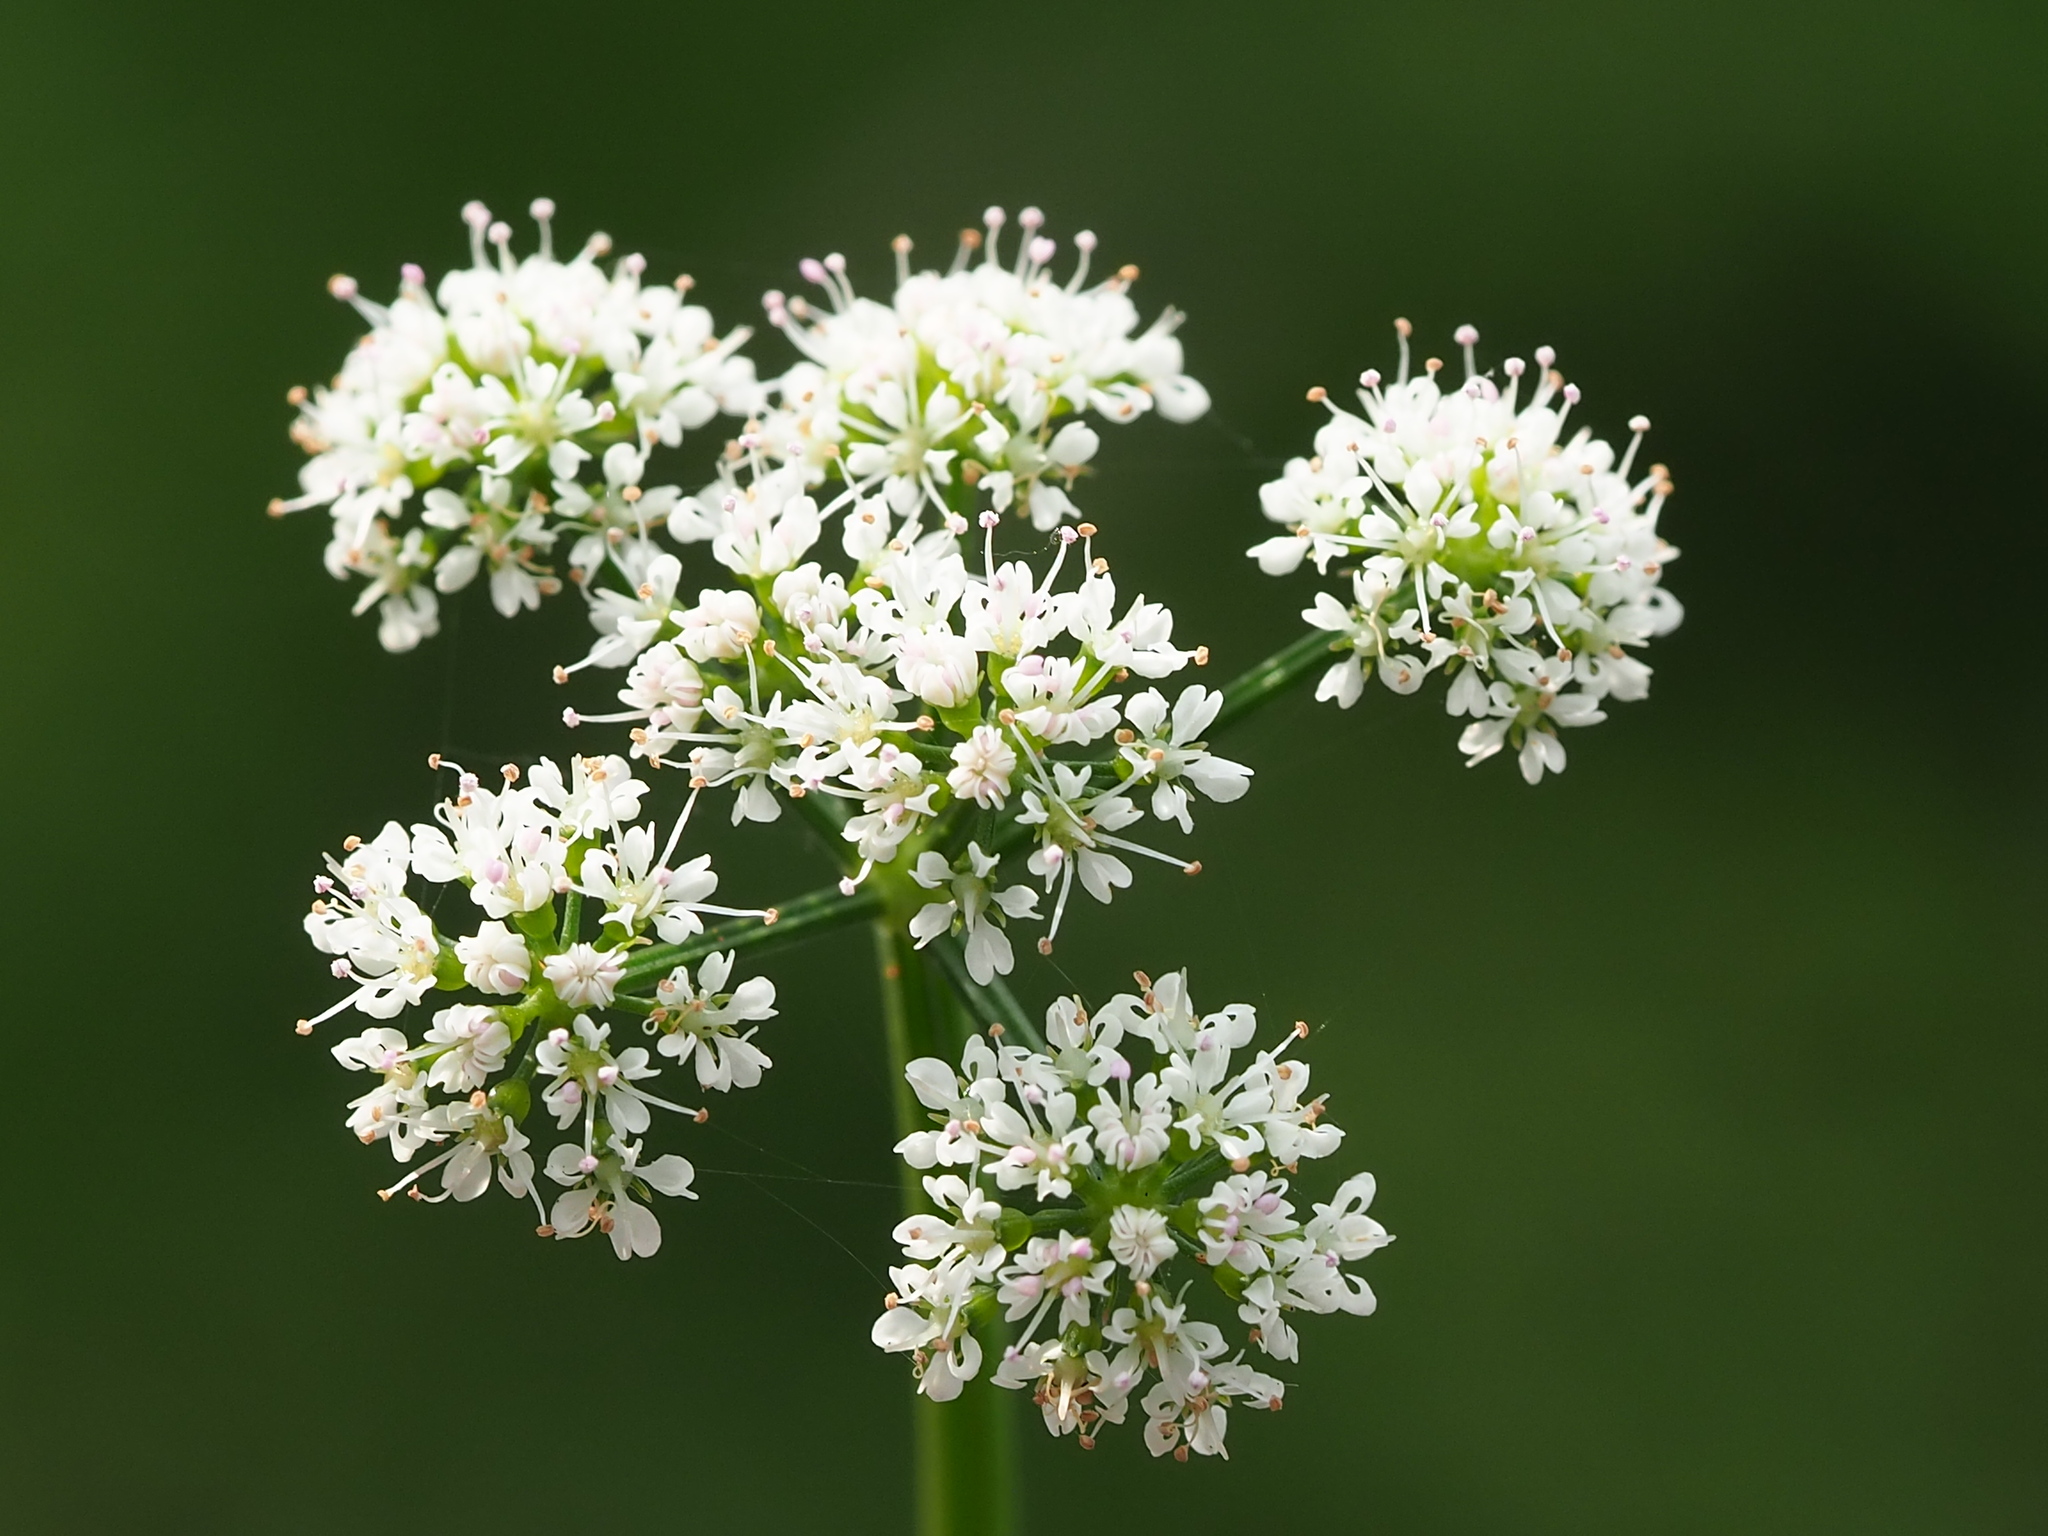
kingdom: Plantae
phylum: Tracheophyta
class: Magnoliopsida
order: Apiales
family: Apiaceae
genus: Oenanthe
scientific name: Oenanthe javanica
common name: Java water-dropwort
